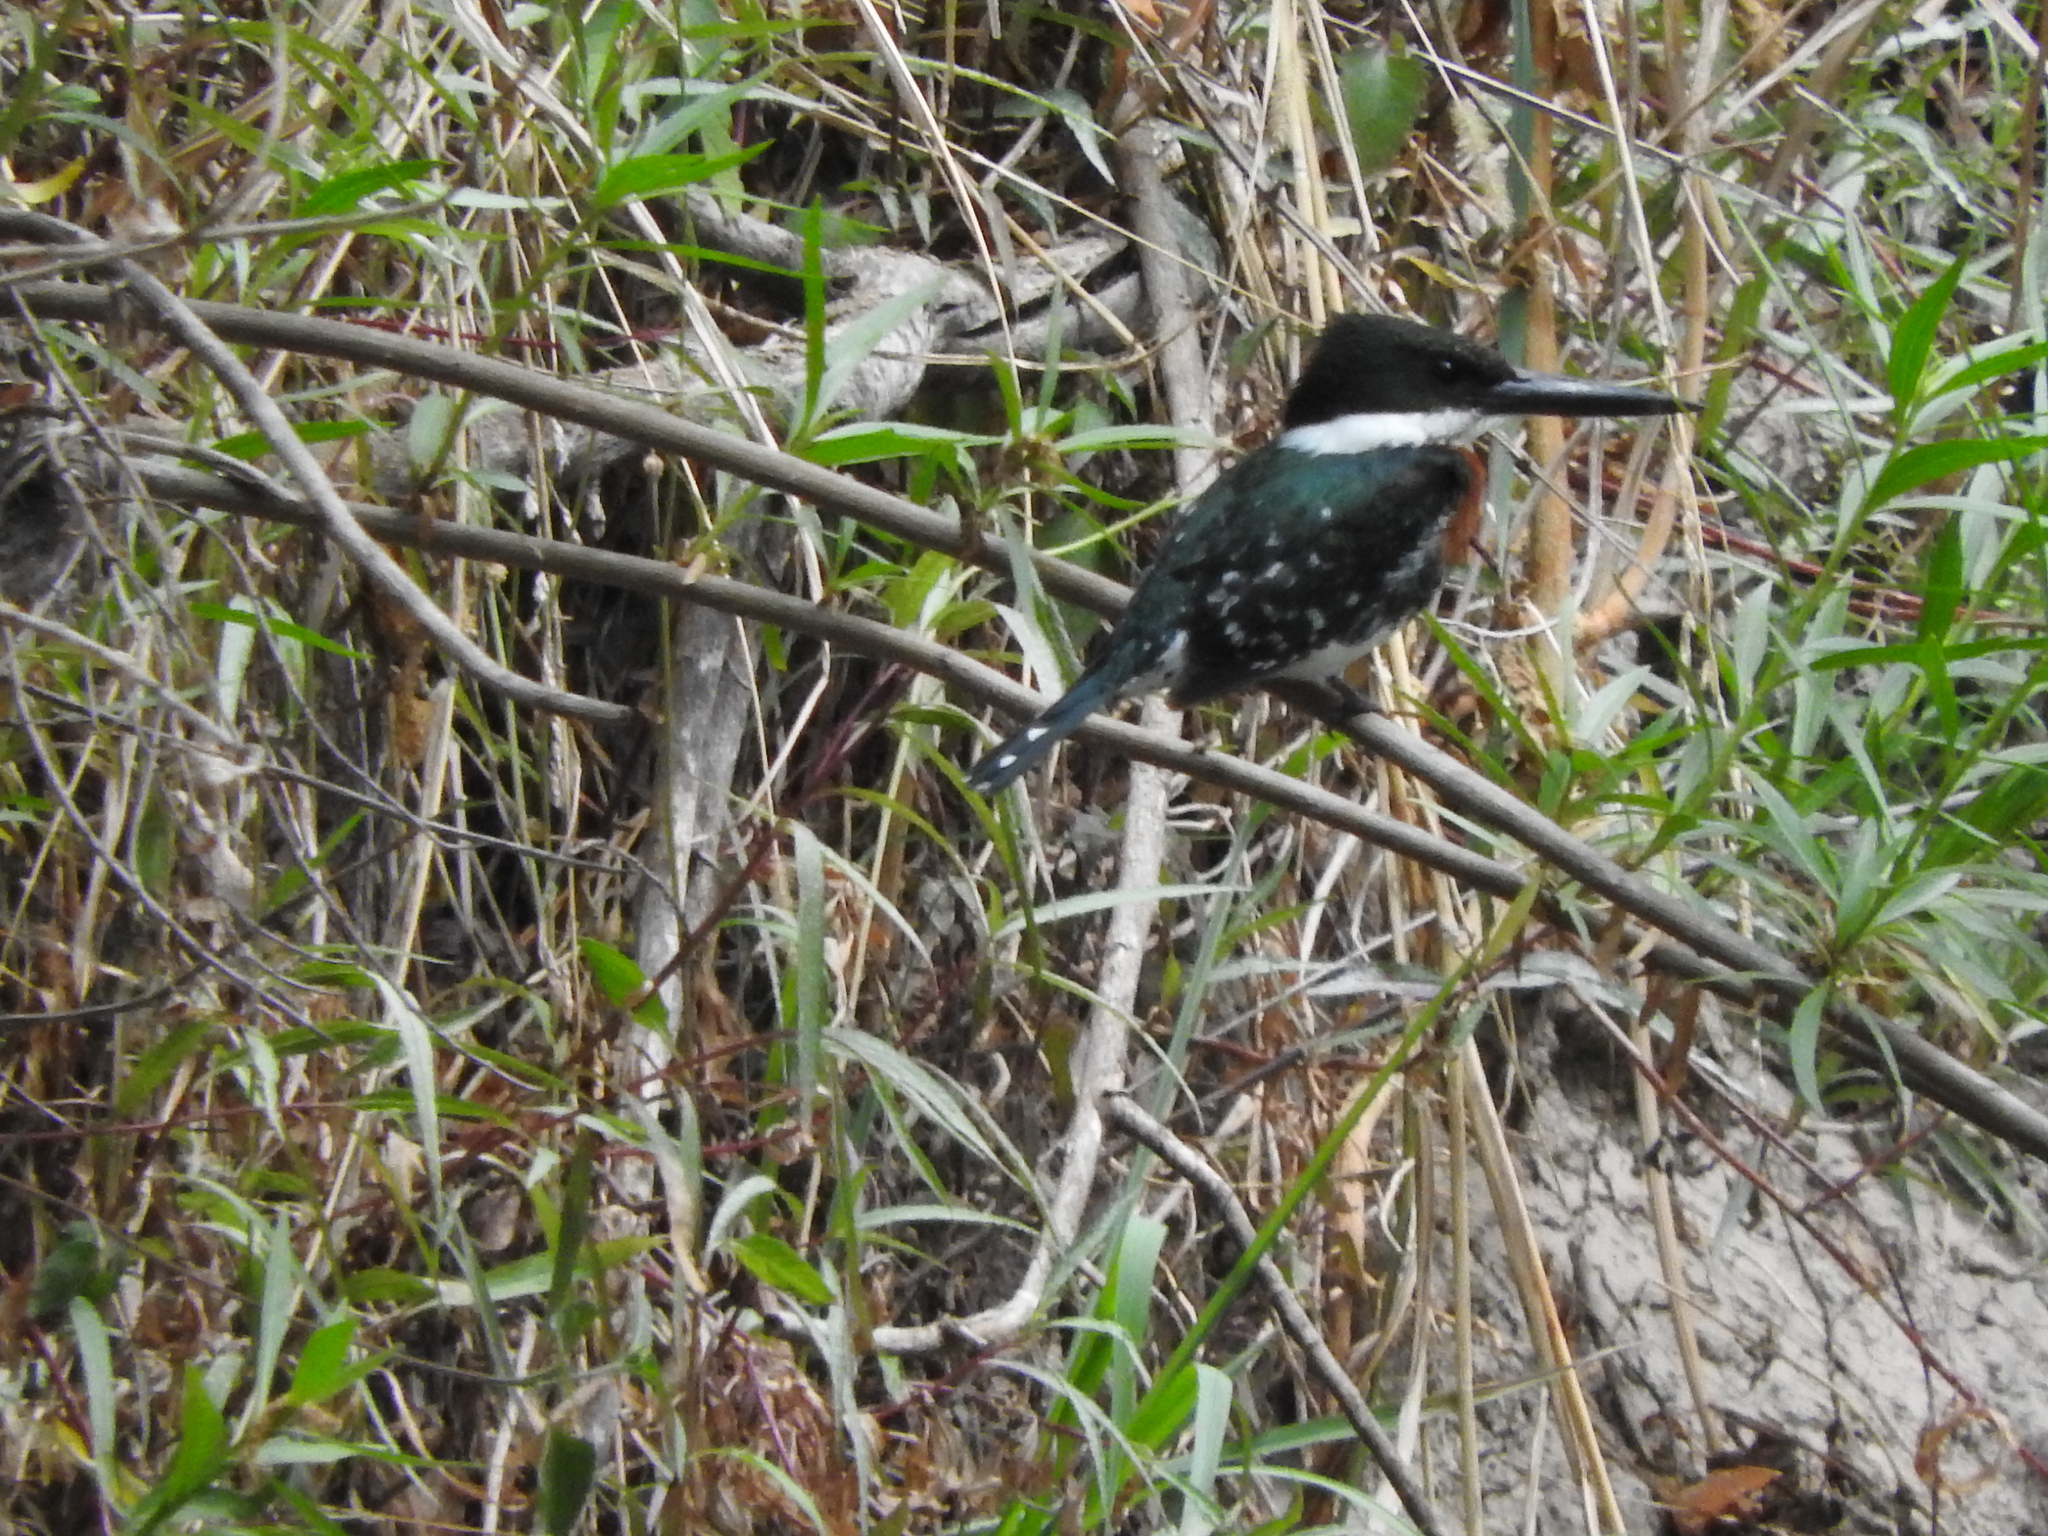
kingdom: Animalia
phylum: Chordata
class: Aves
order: Coraciiformes
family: Alcedinidae
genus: Chloroceryle
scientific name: Chloroceryle americana
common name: Green kingfisher
